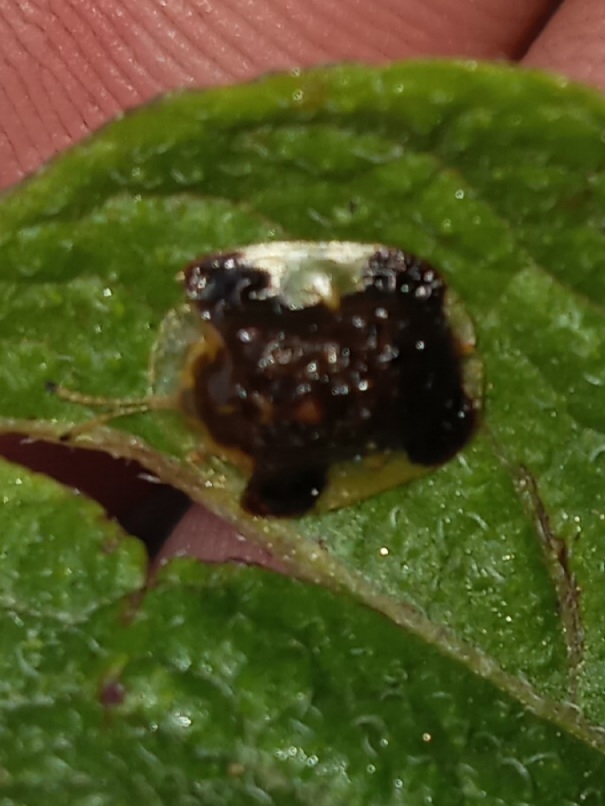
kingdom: Animalia
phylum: Arthropoda
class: Insecta
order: Coleoptera
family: Chrysomelidae
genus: Helocassis
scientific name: Helocassis clavata
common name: Clavate tortoise beetle
